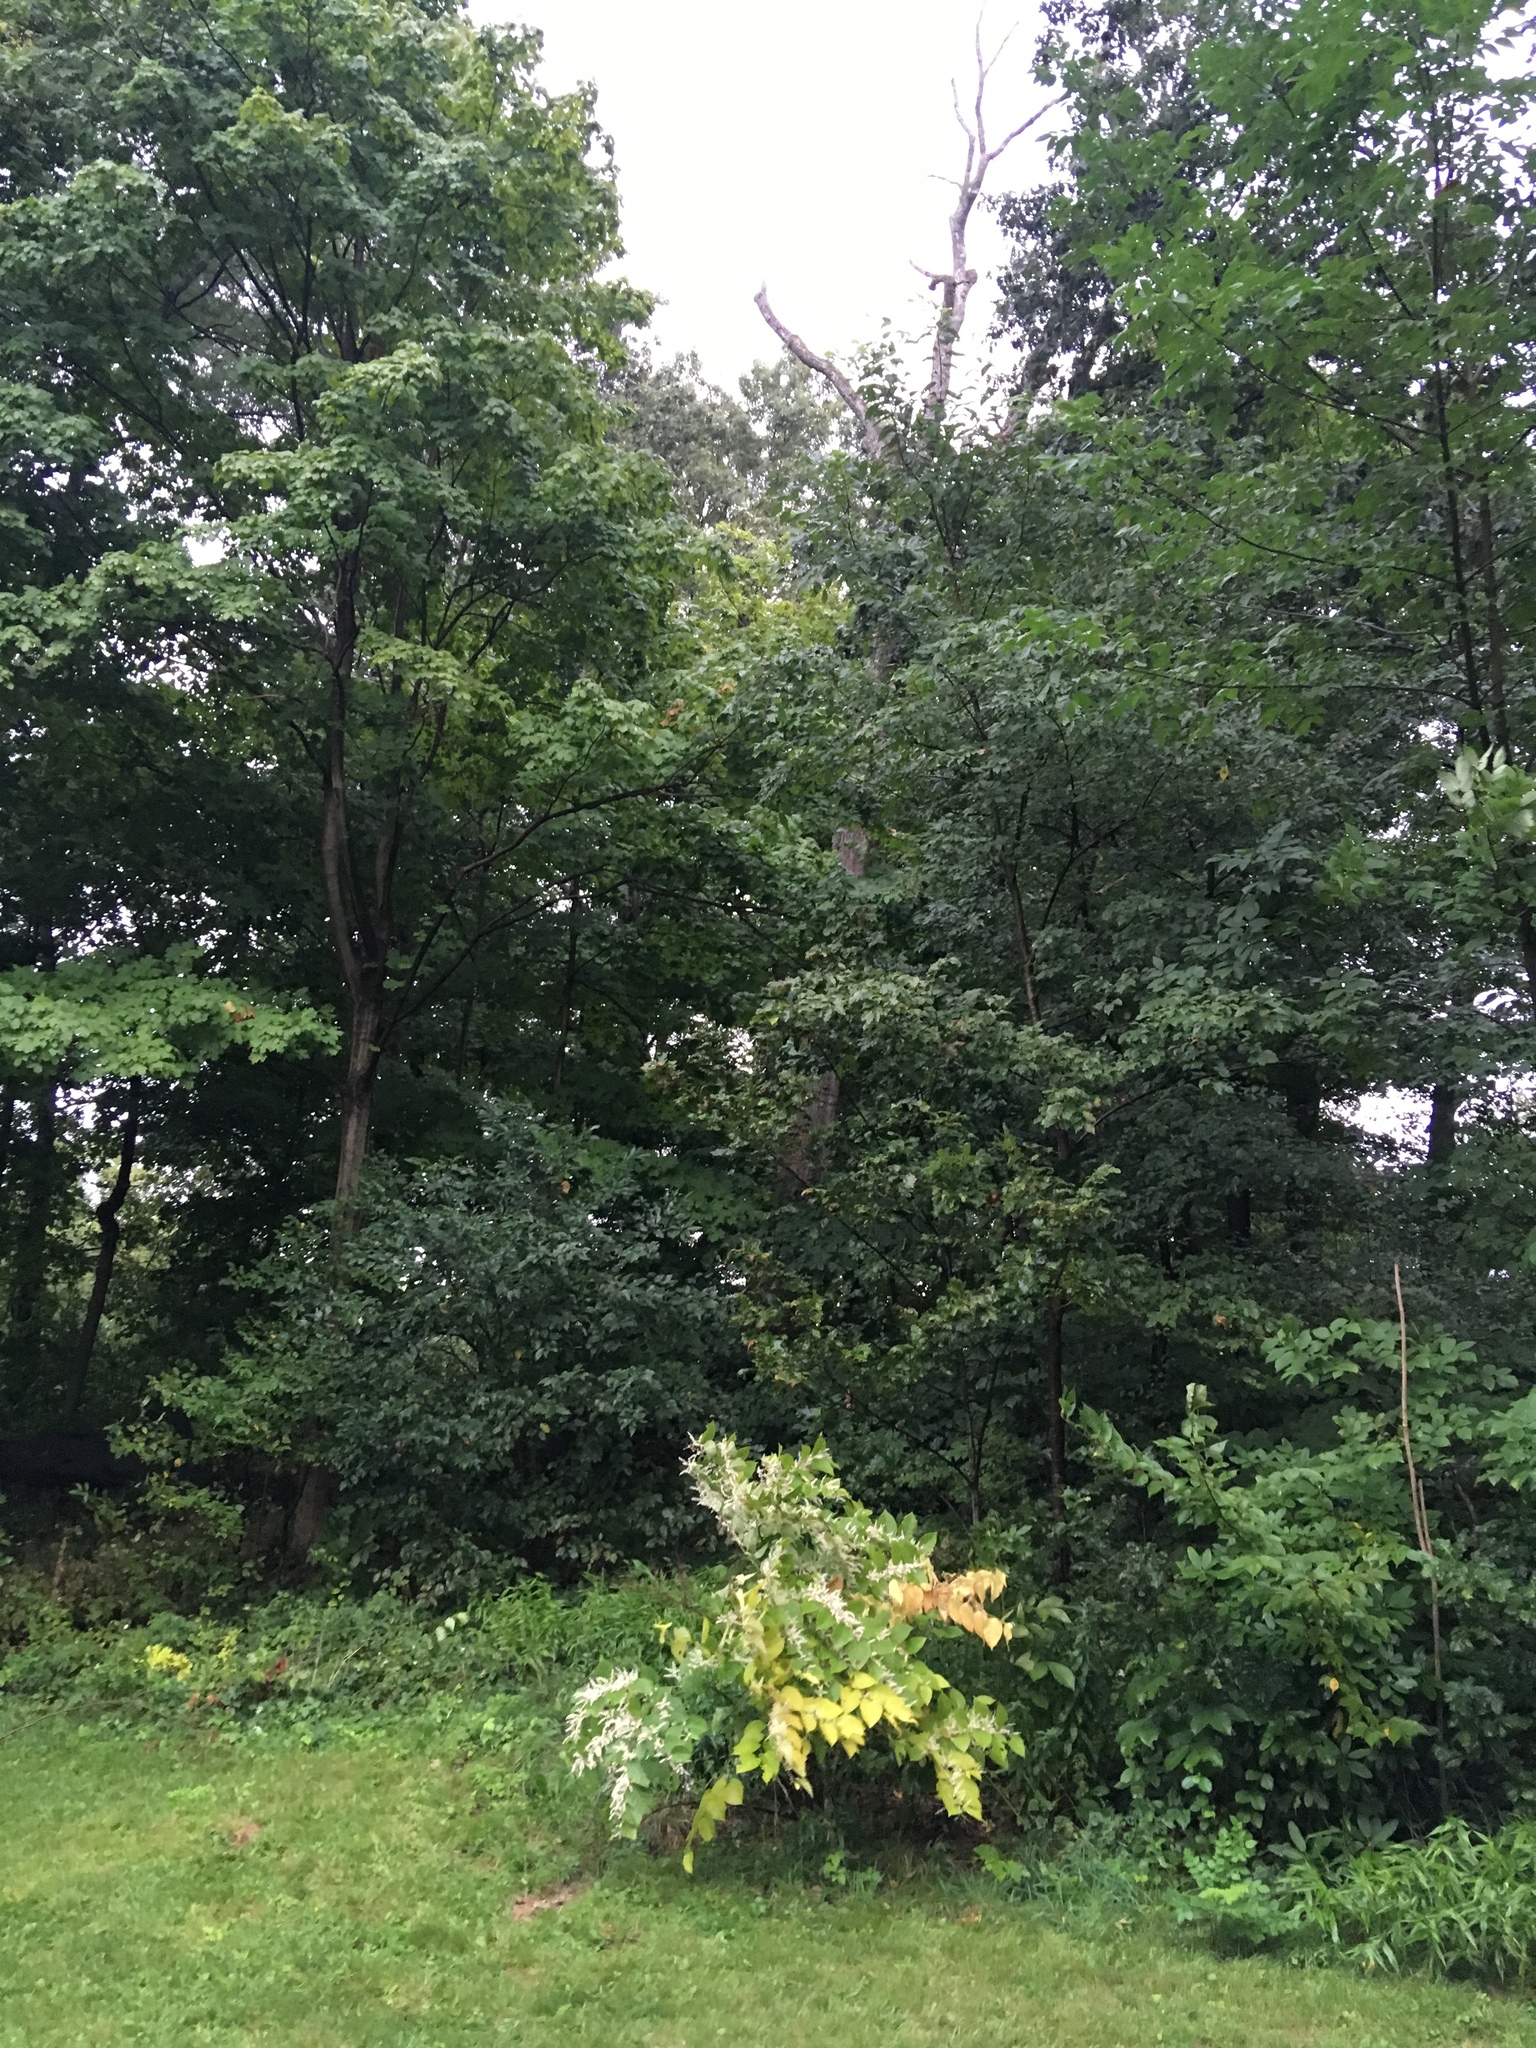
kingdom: Plantae
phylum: Tracheophyta
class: Magnoliopsida
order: Caryophyllales
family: Polygonaceae
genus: Reynoutria
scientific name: Reynoutria japonica
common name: Japanese knotweed
